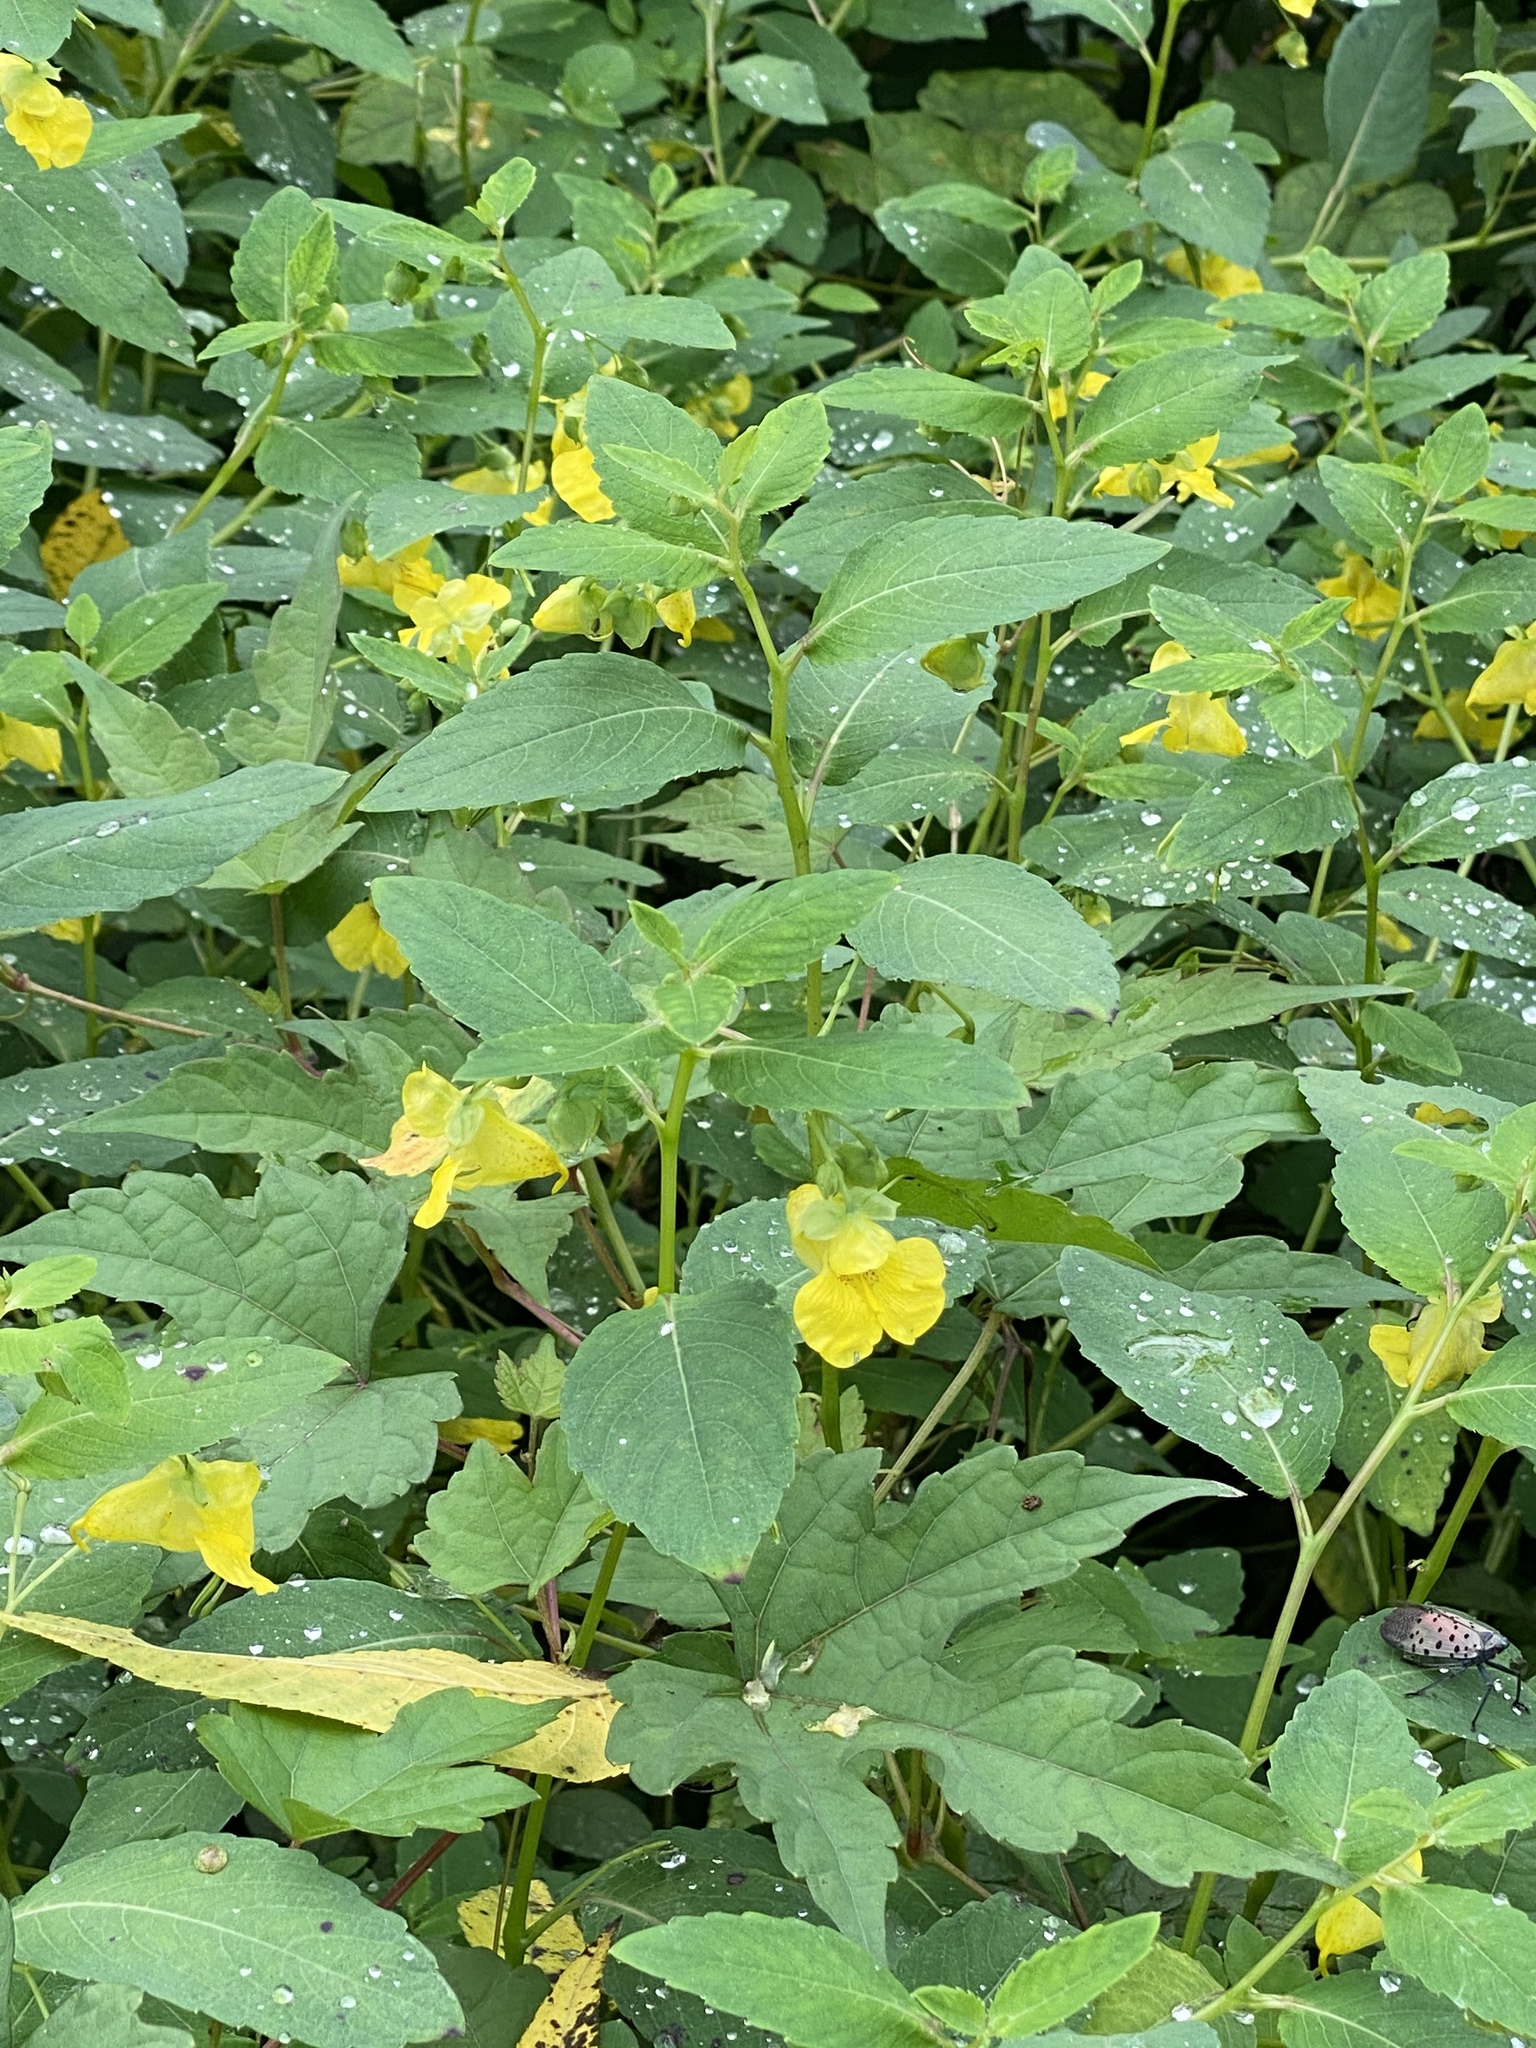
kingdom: Plantae
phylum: Tracheophyta
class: Magnoliopsida
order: Ericales
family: Balsaminaceae
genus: Impatiens
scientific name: Impatiens pallida
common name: Pale snapweed
